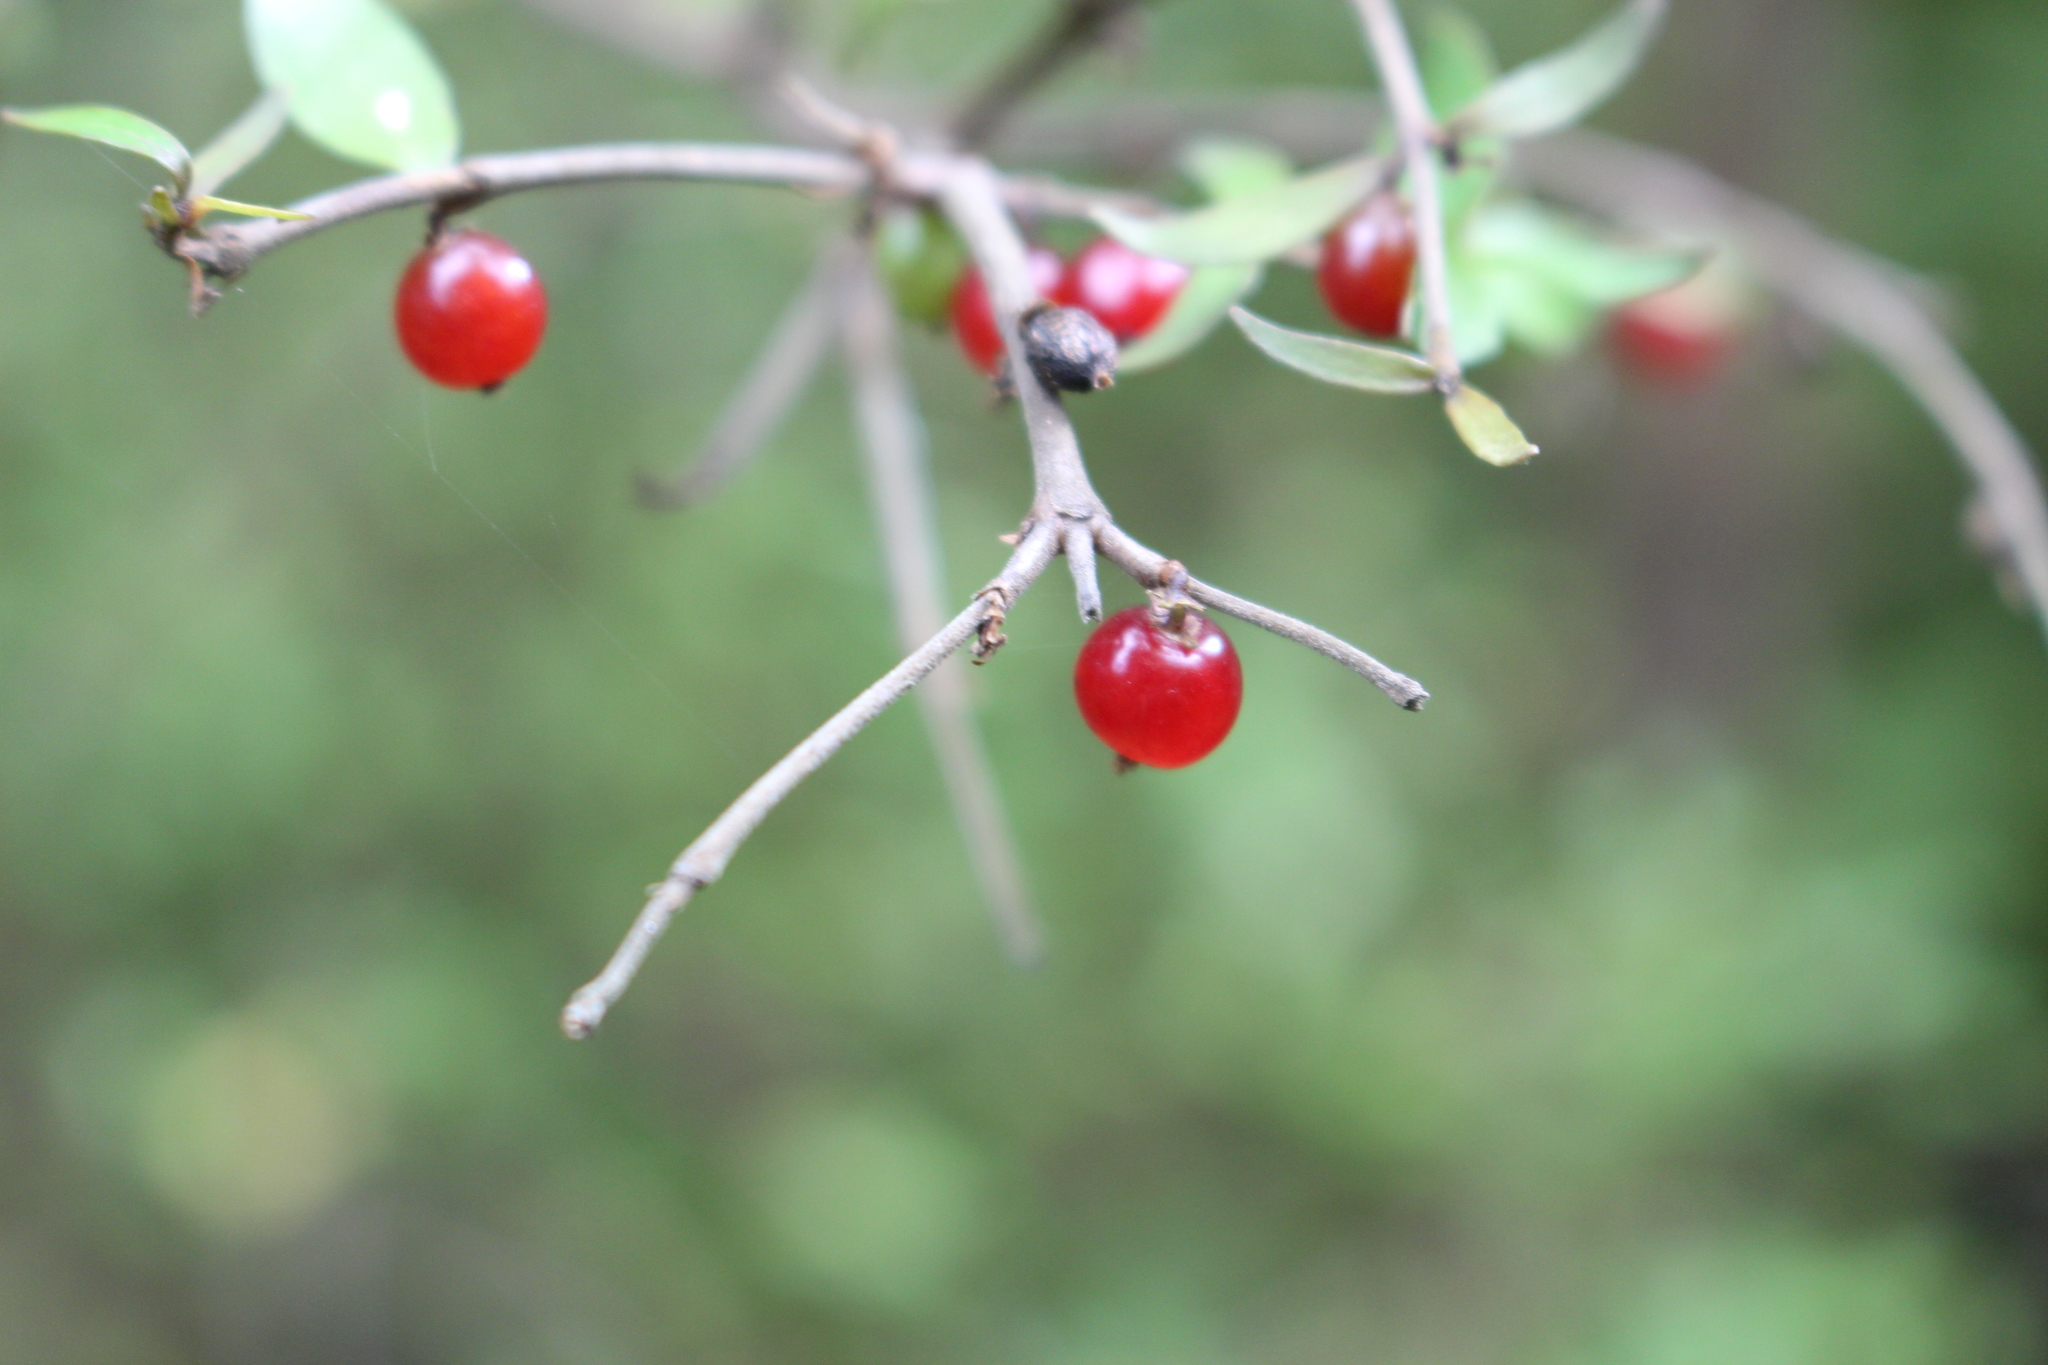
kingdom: Plantae
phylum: Tracheophyta
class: Magnoliopsida
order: Gentianales
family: Rubiaceae
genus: Coprosma
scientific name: Coprosma rhamnoides
